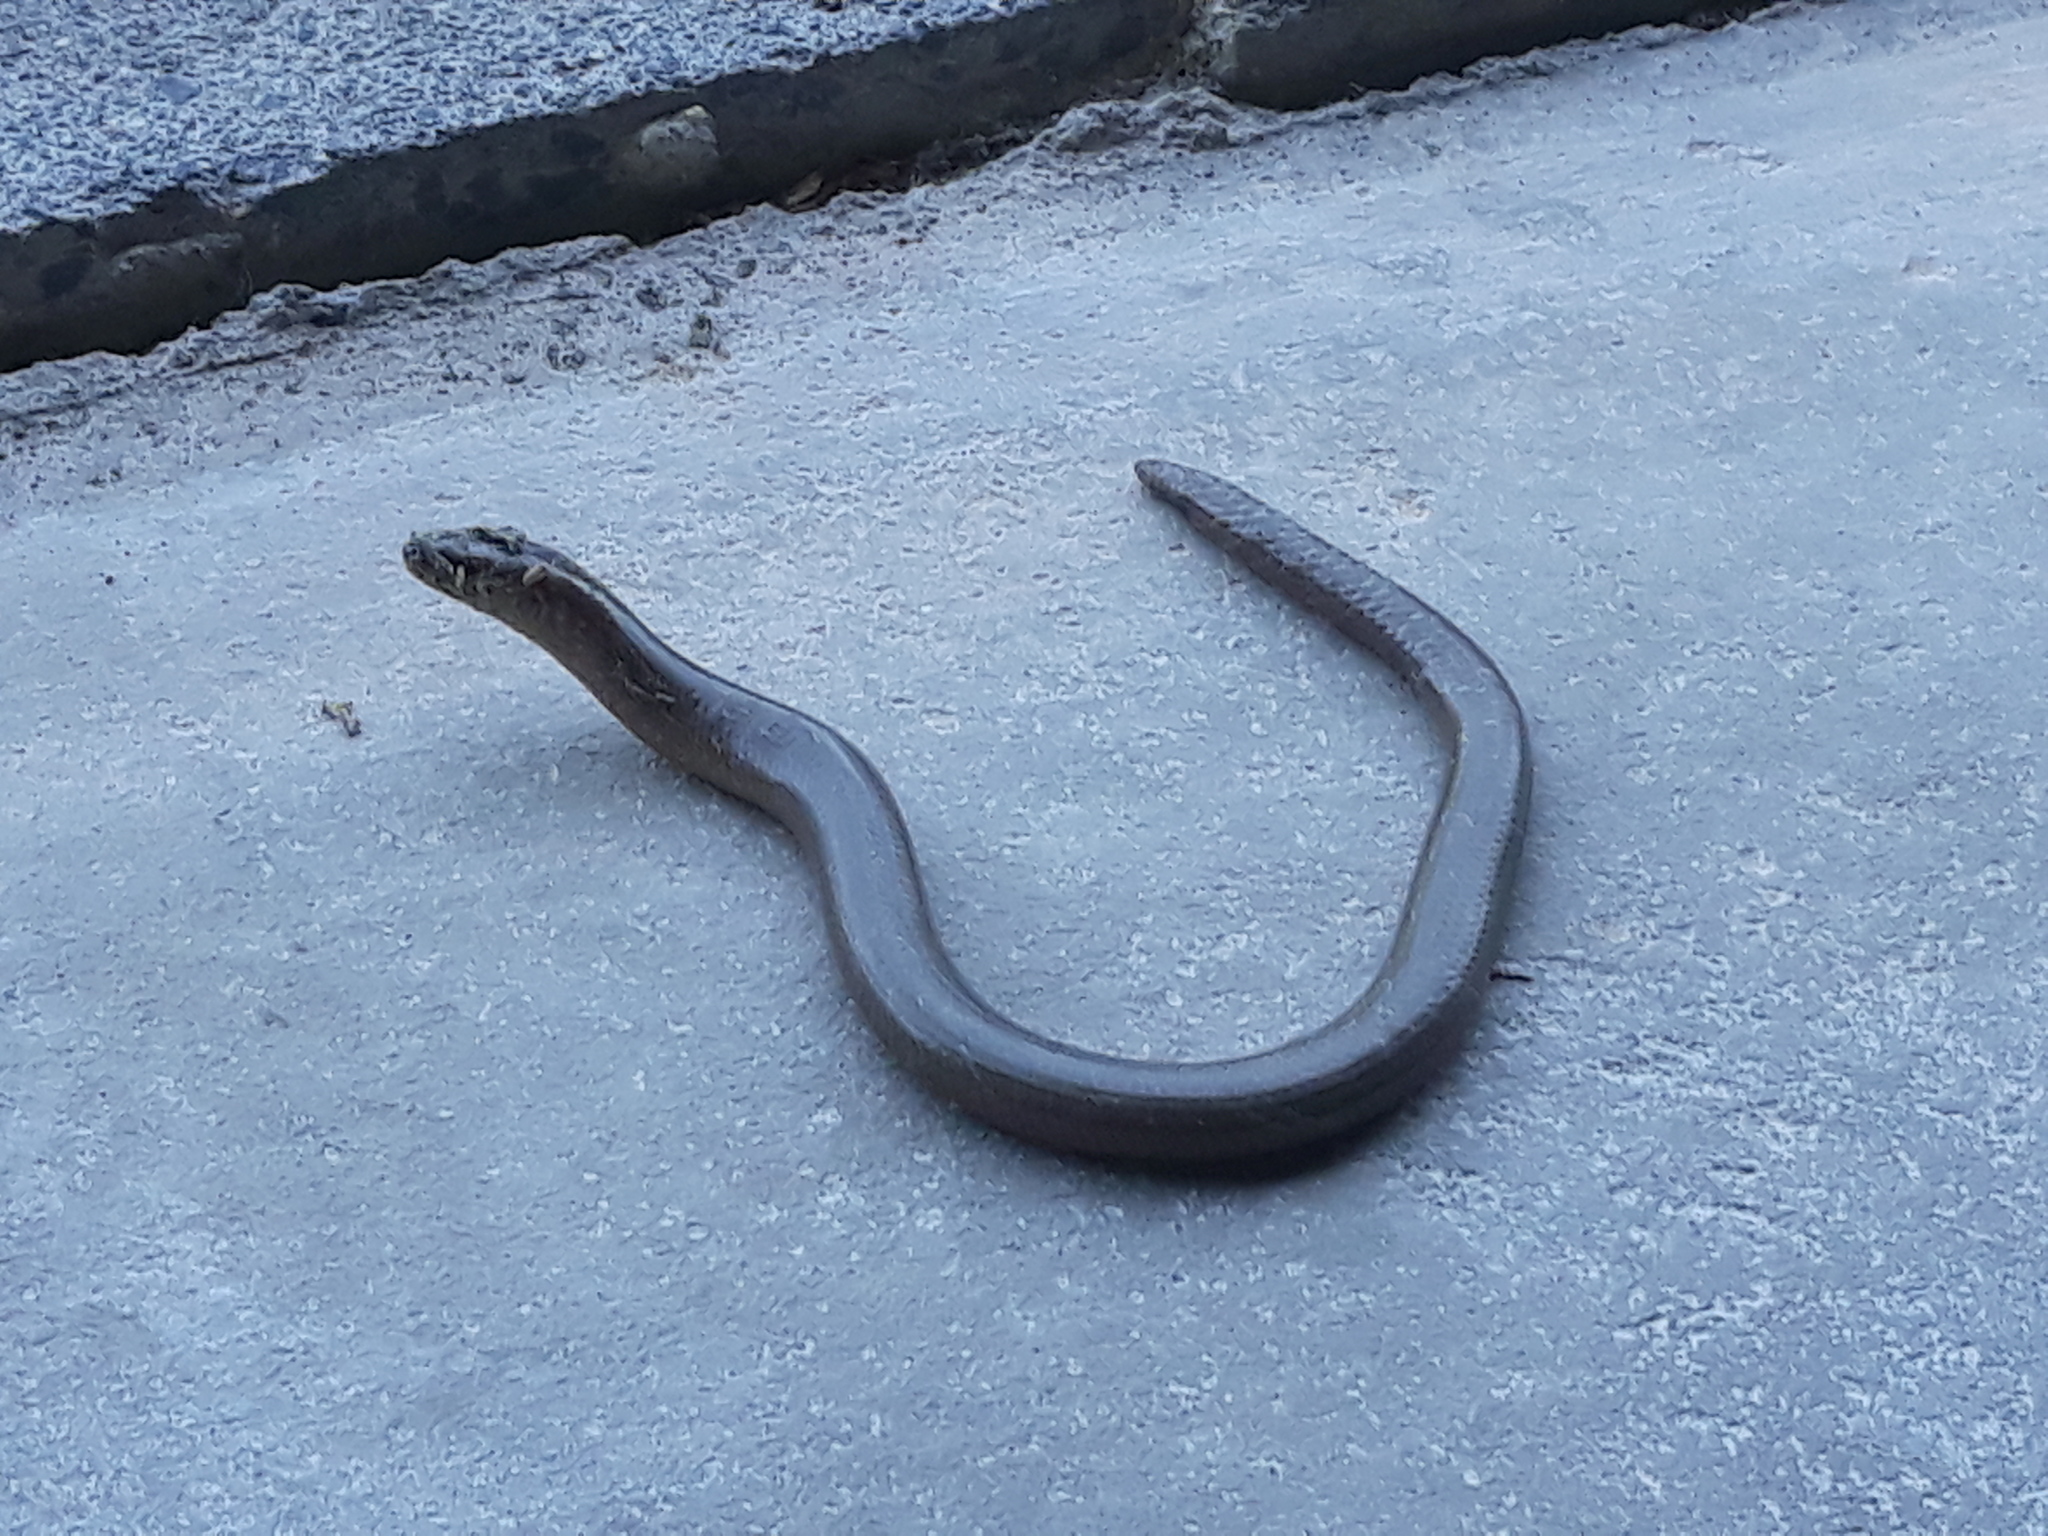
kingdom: Animalia
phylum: Chordata
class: Squamata
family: Anguidae
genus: Anguis
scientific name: Anguis fragilis
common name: Slow worm
